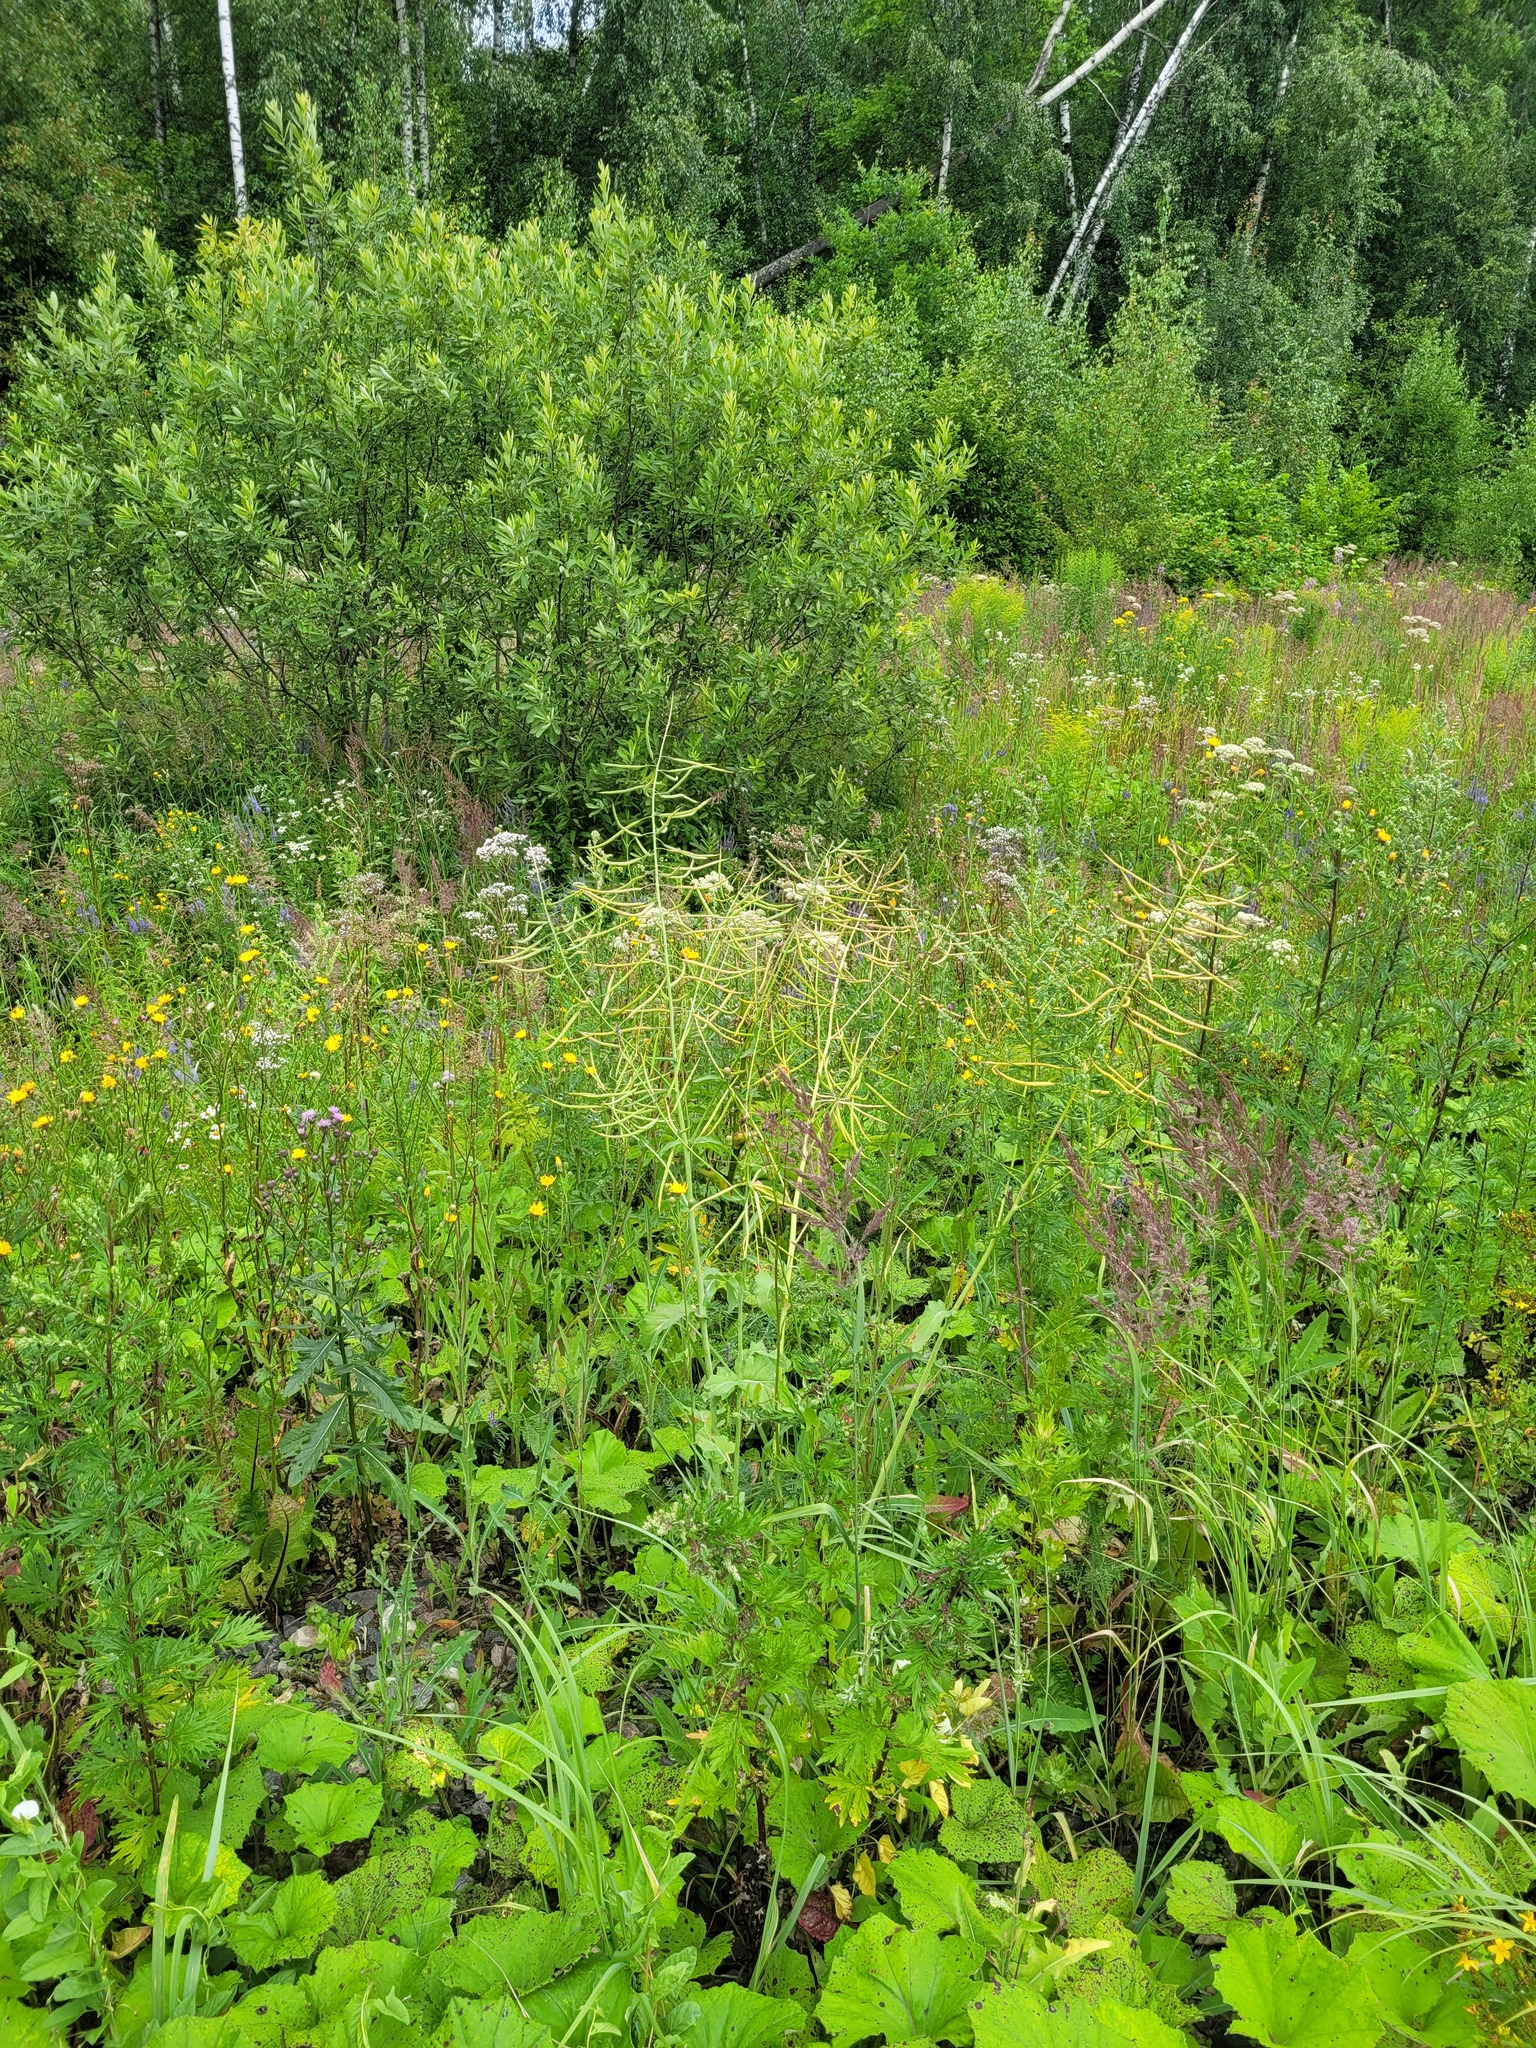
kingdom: Plantae
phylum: Tracheophyta
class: Magnoliopsida
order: Brassicales
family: Brassicaceae
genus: Brassica
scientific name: Brassica napus
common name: Rape
